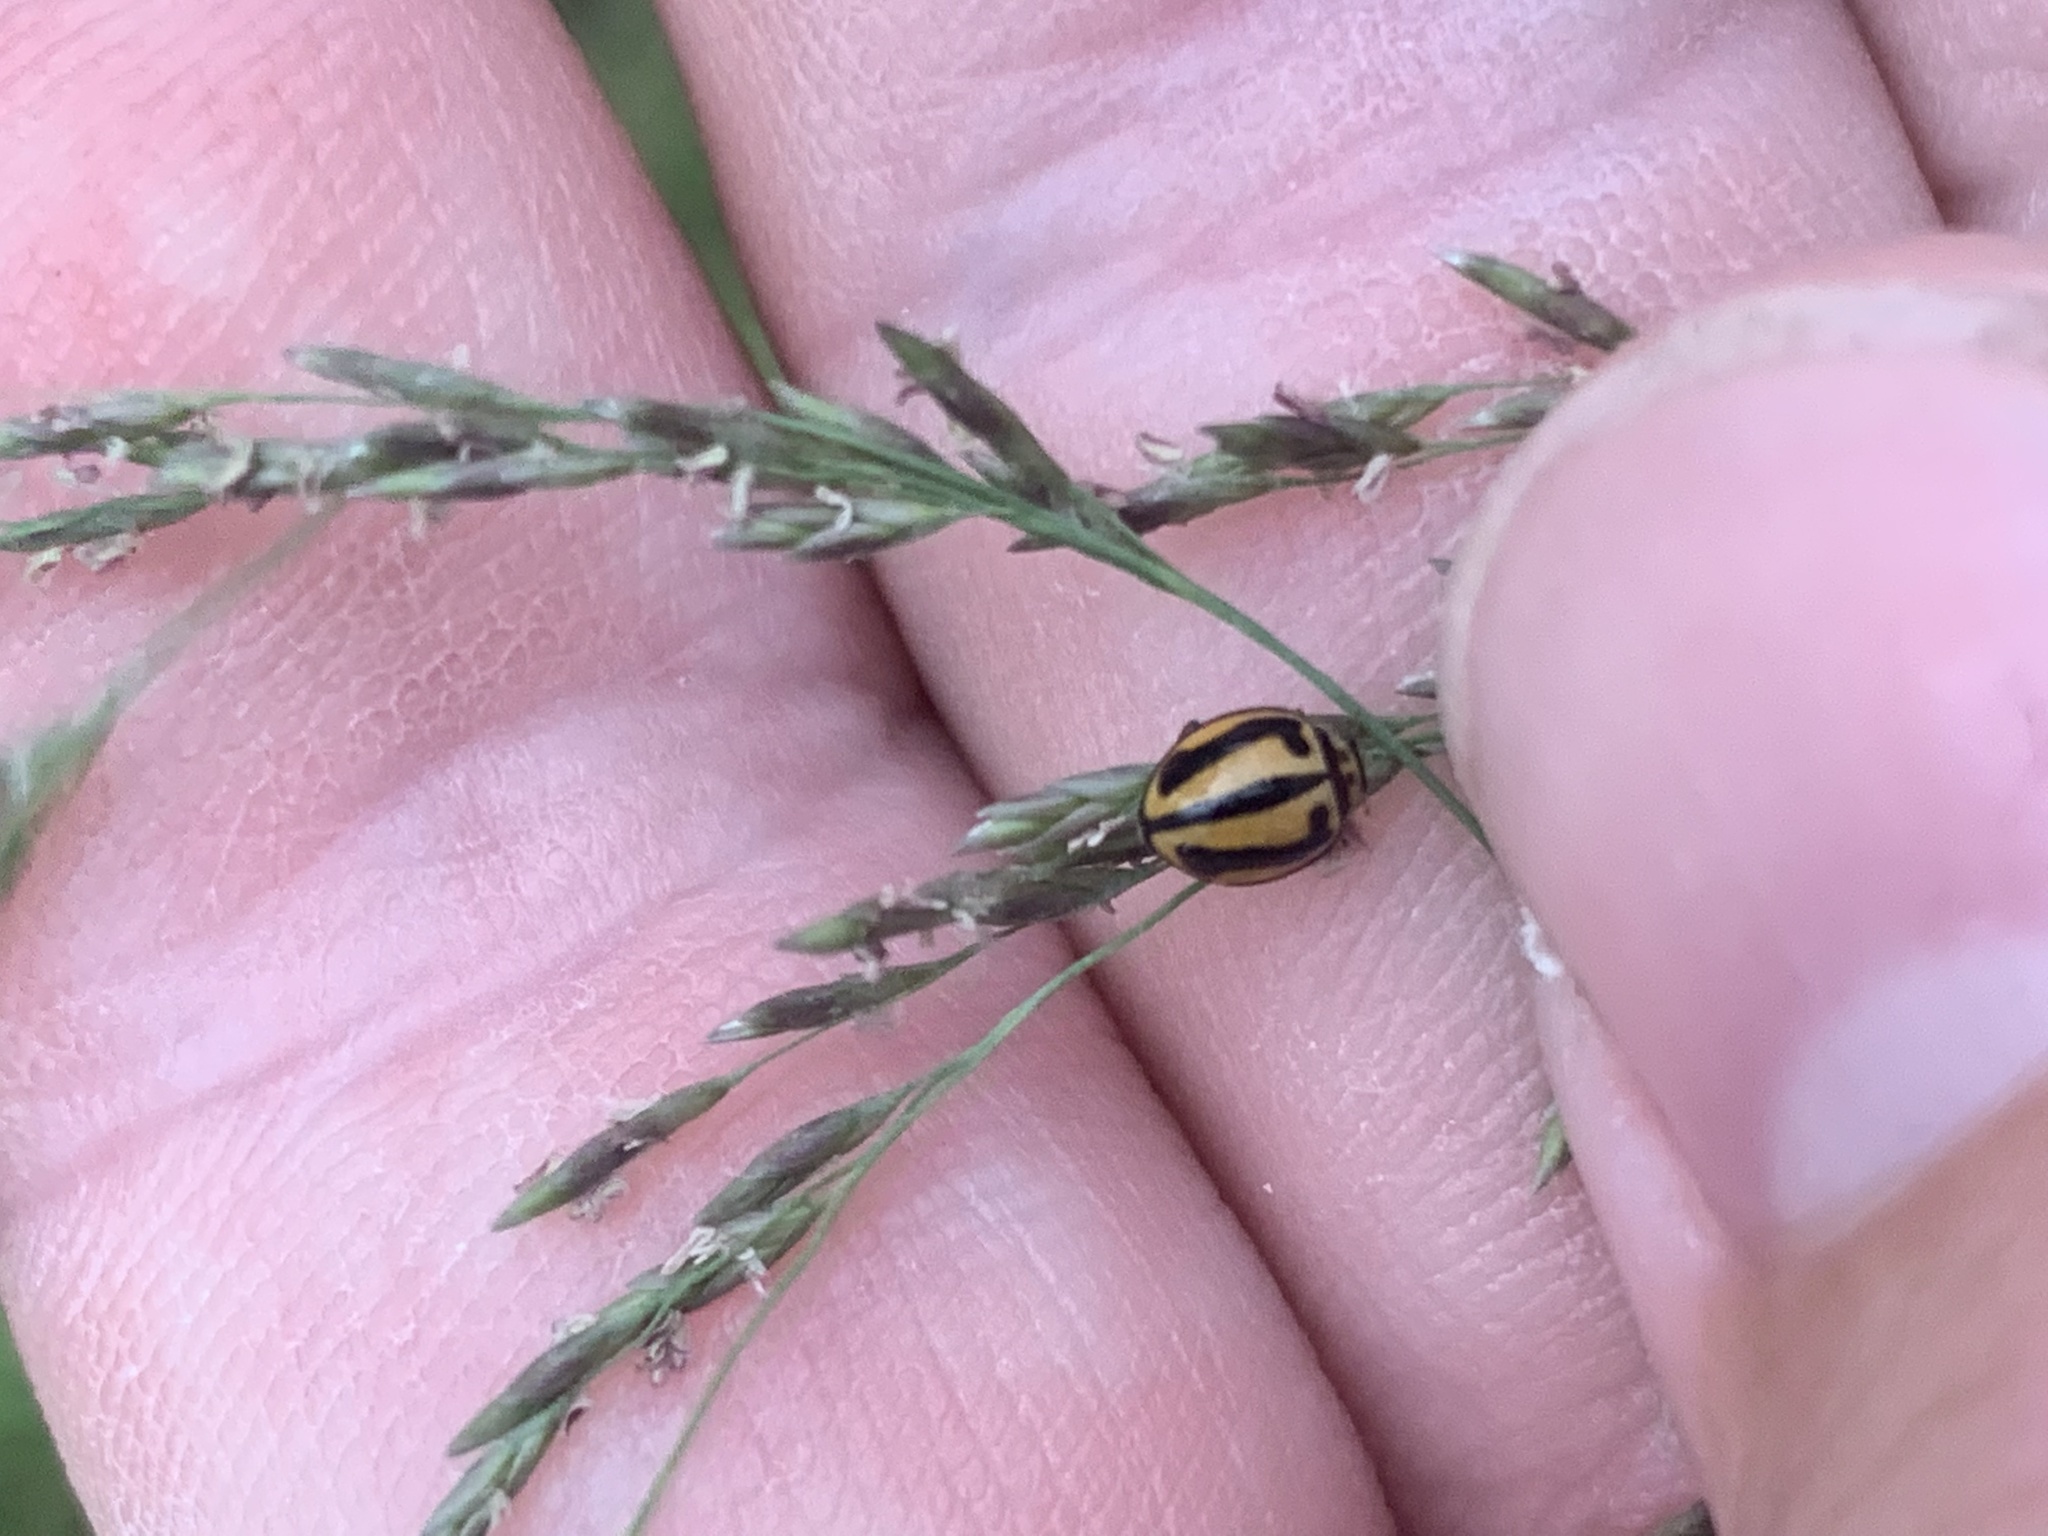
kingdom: Animalia
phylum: Arthropoda
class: Insecta
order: Coleoptera
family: Coccinellidae
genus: Micraspis
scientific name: Micraspis frenata
